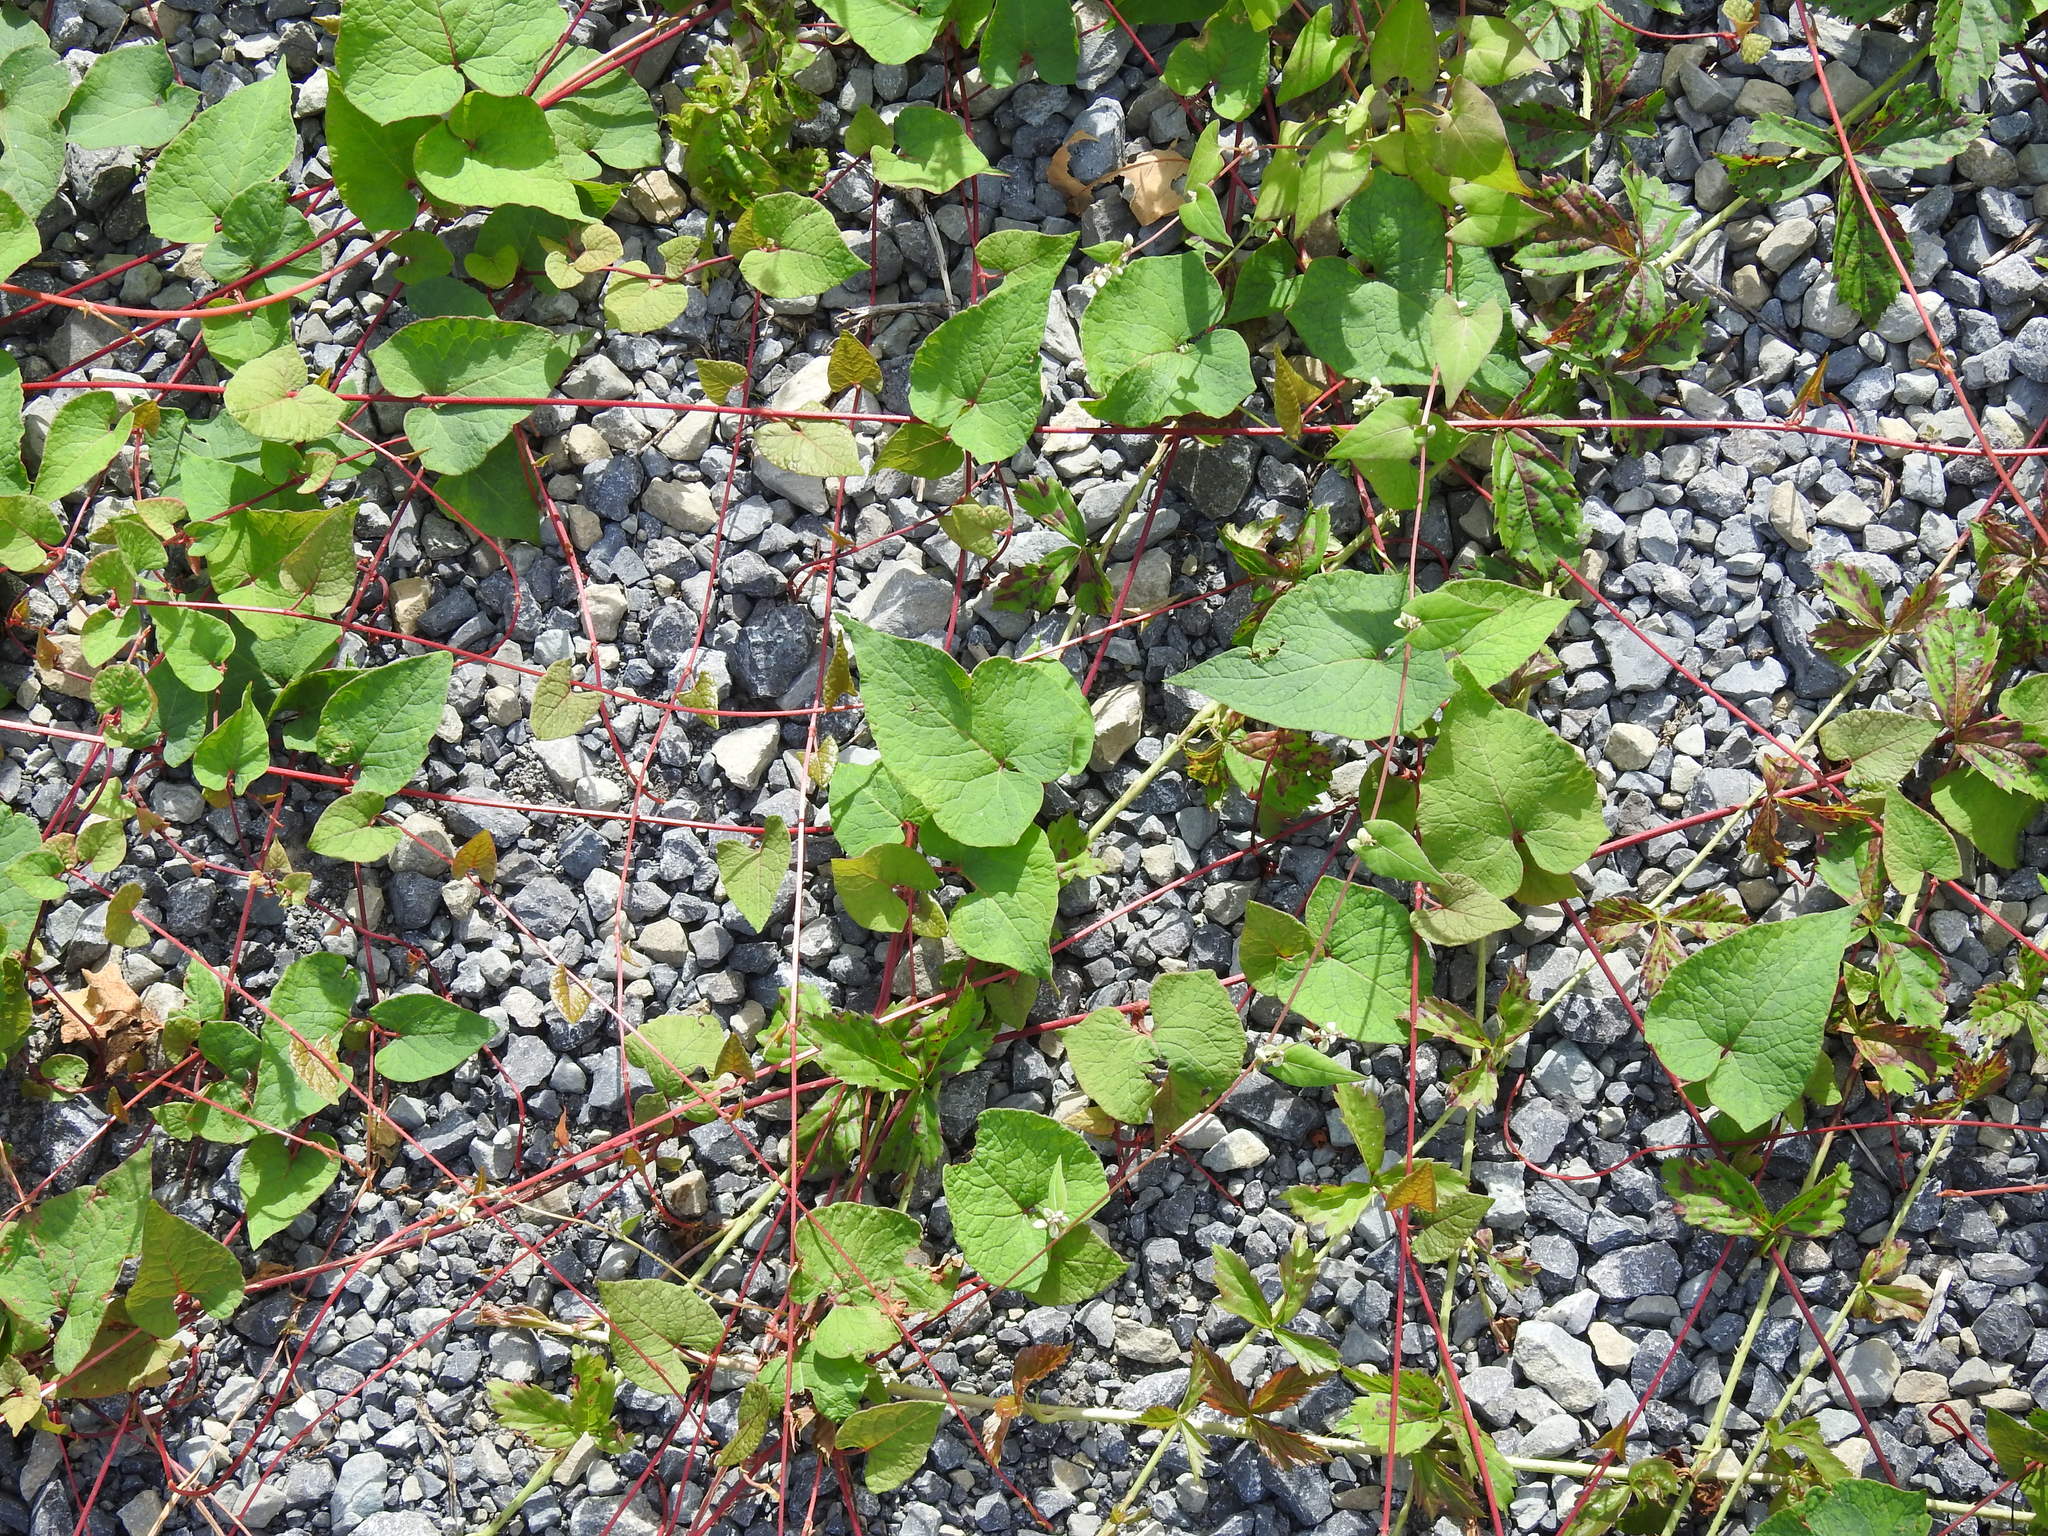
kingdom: Plantae
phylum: Tracheophyta
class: Magnoliopsida
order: Caryophyllales
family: Polygonaceae
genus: Parogonum
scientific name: Parogonum ciliinode
